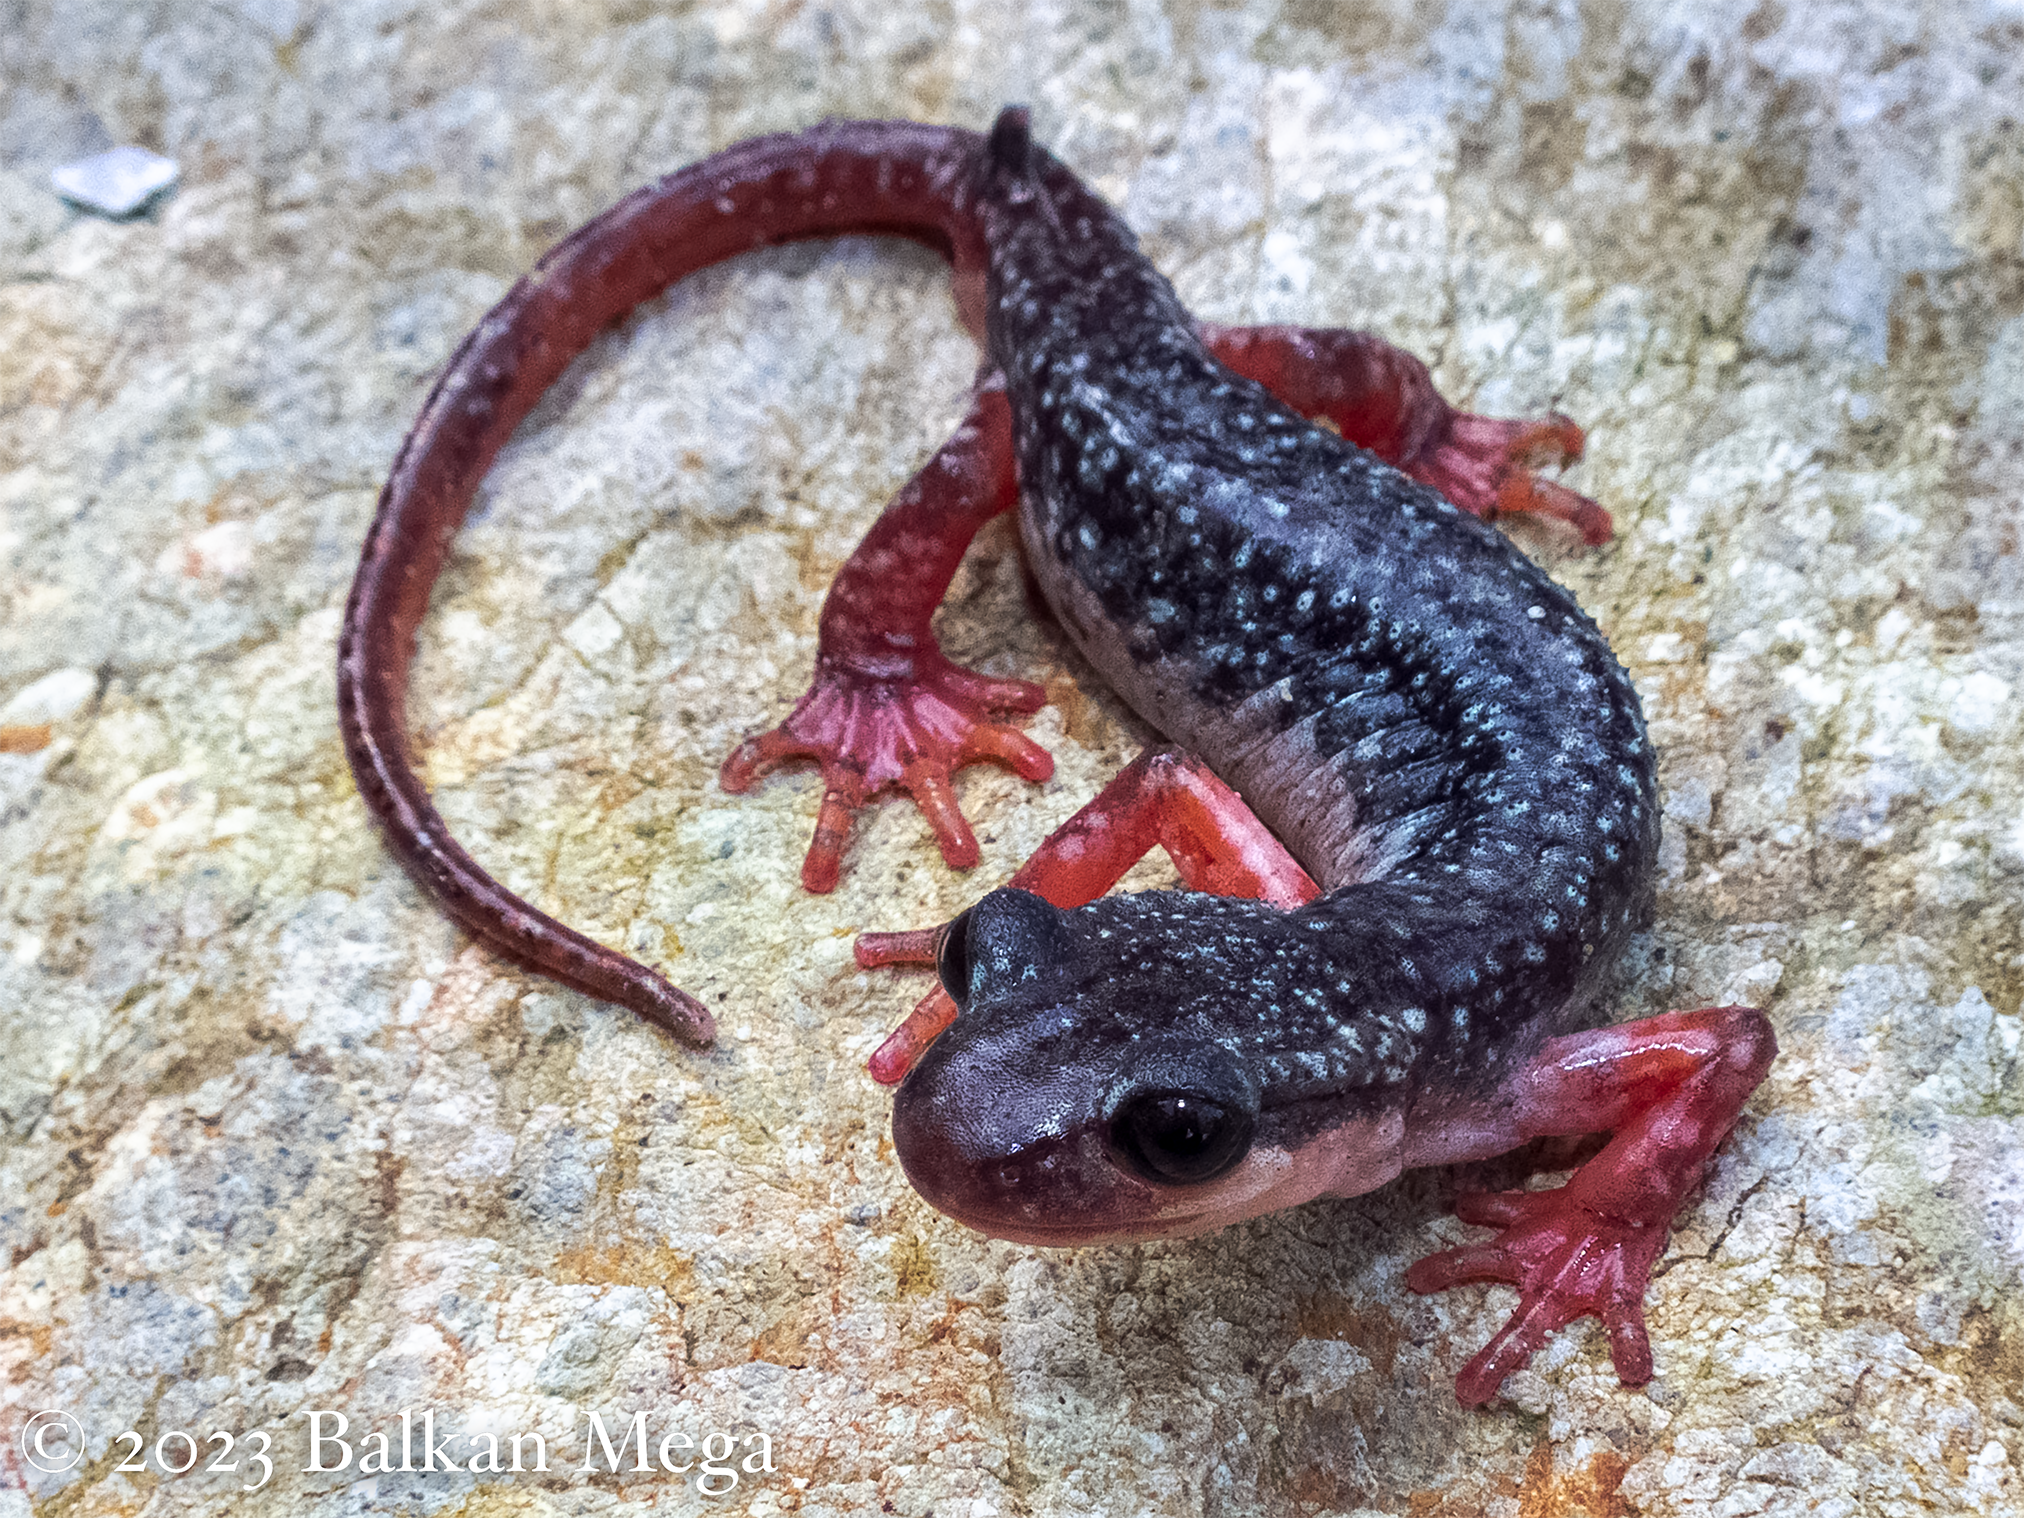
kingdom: Animalia
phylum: Chordata
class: Amphibia
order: Caudata
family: Salamandridae
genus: Lyciasalamandra
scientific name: Lyciasalamandra atifi
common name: Atif's salamander
